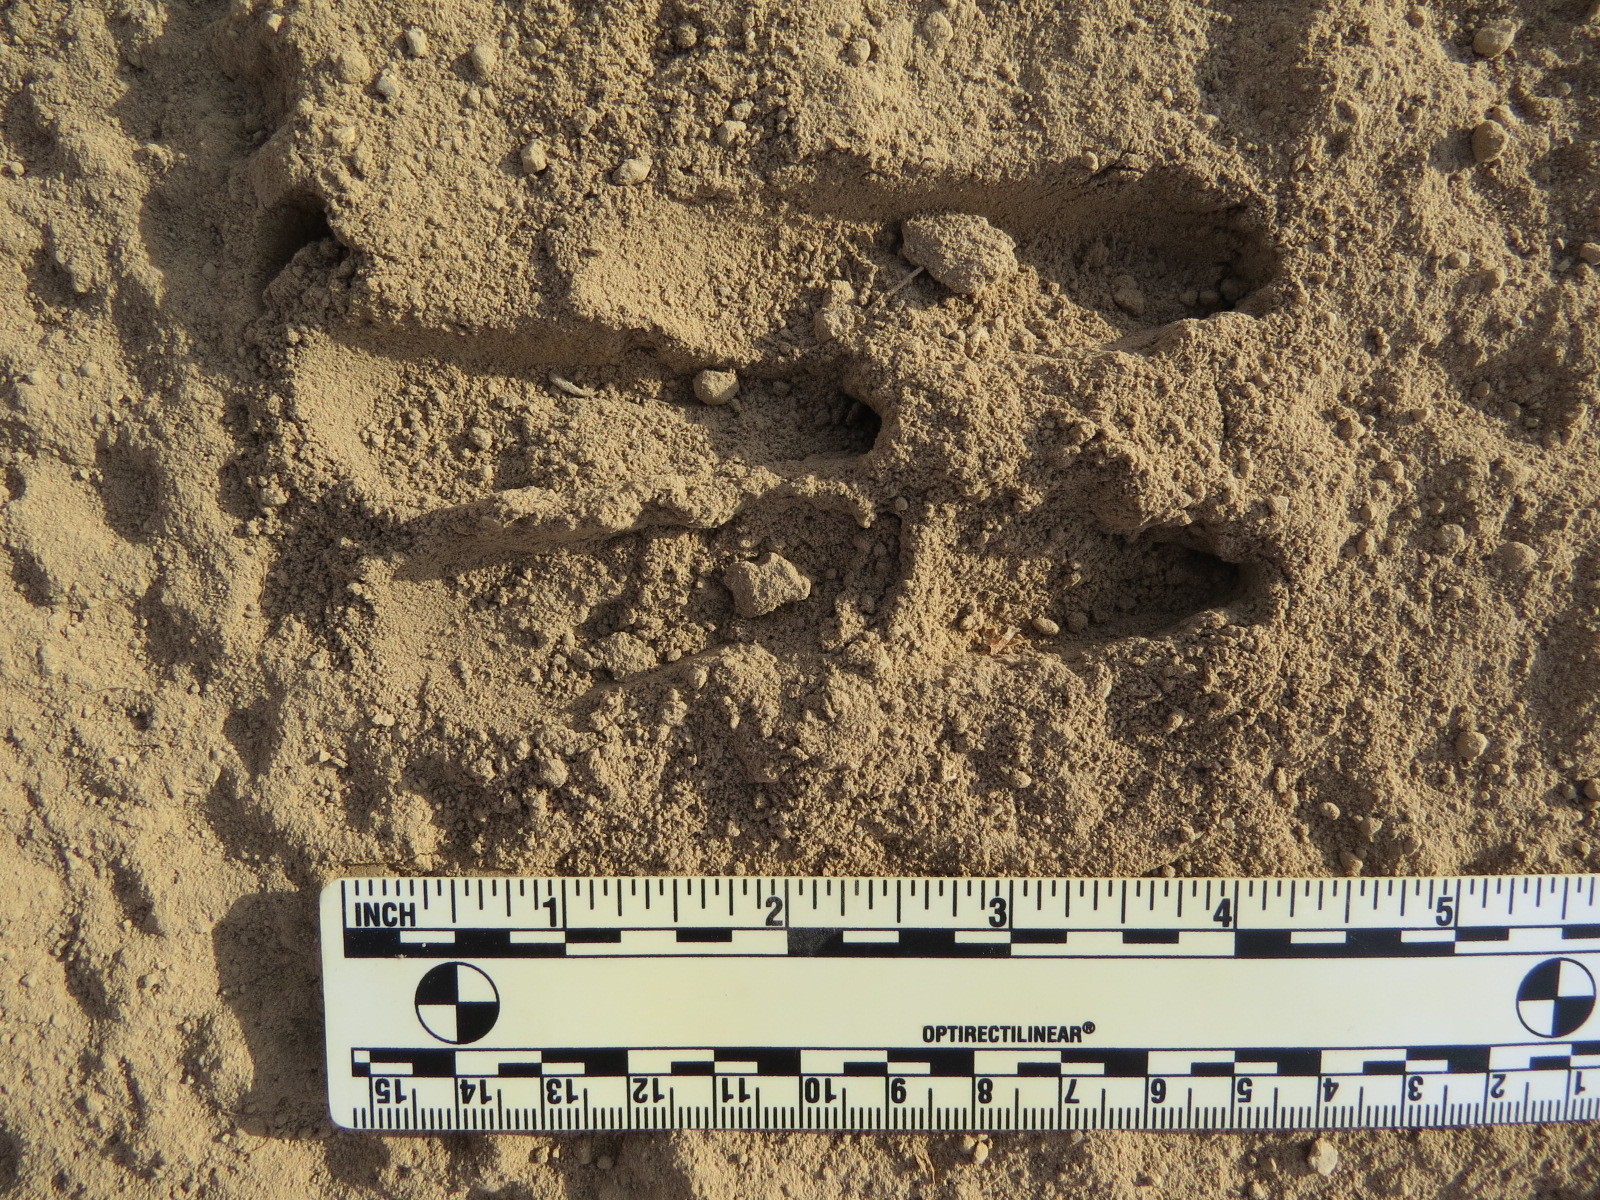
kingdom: Animalia
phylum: Chordata
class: Mammalia
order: Artiodactyla
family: Cervidae
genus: Odocoileus
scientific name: Odocoileus hemionus
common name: Mule deer
